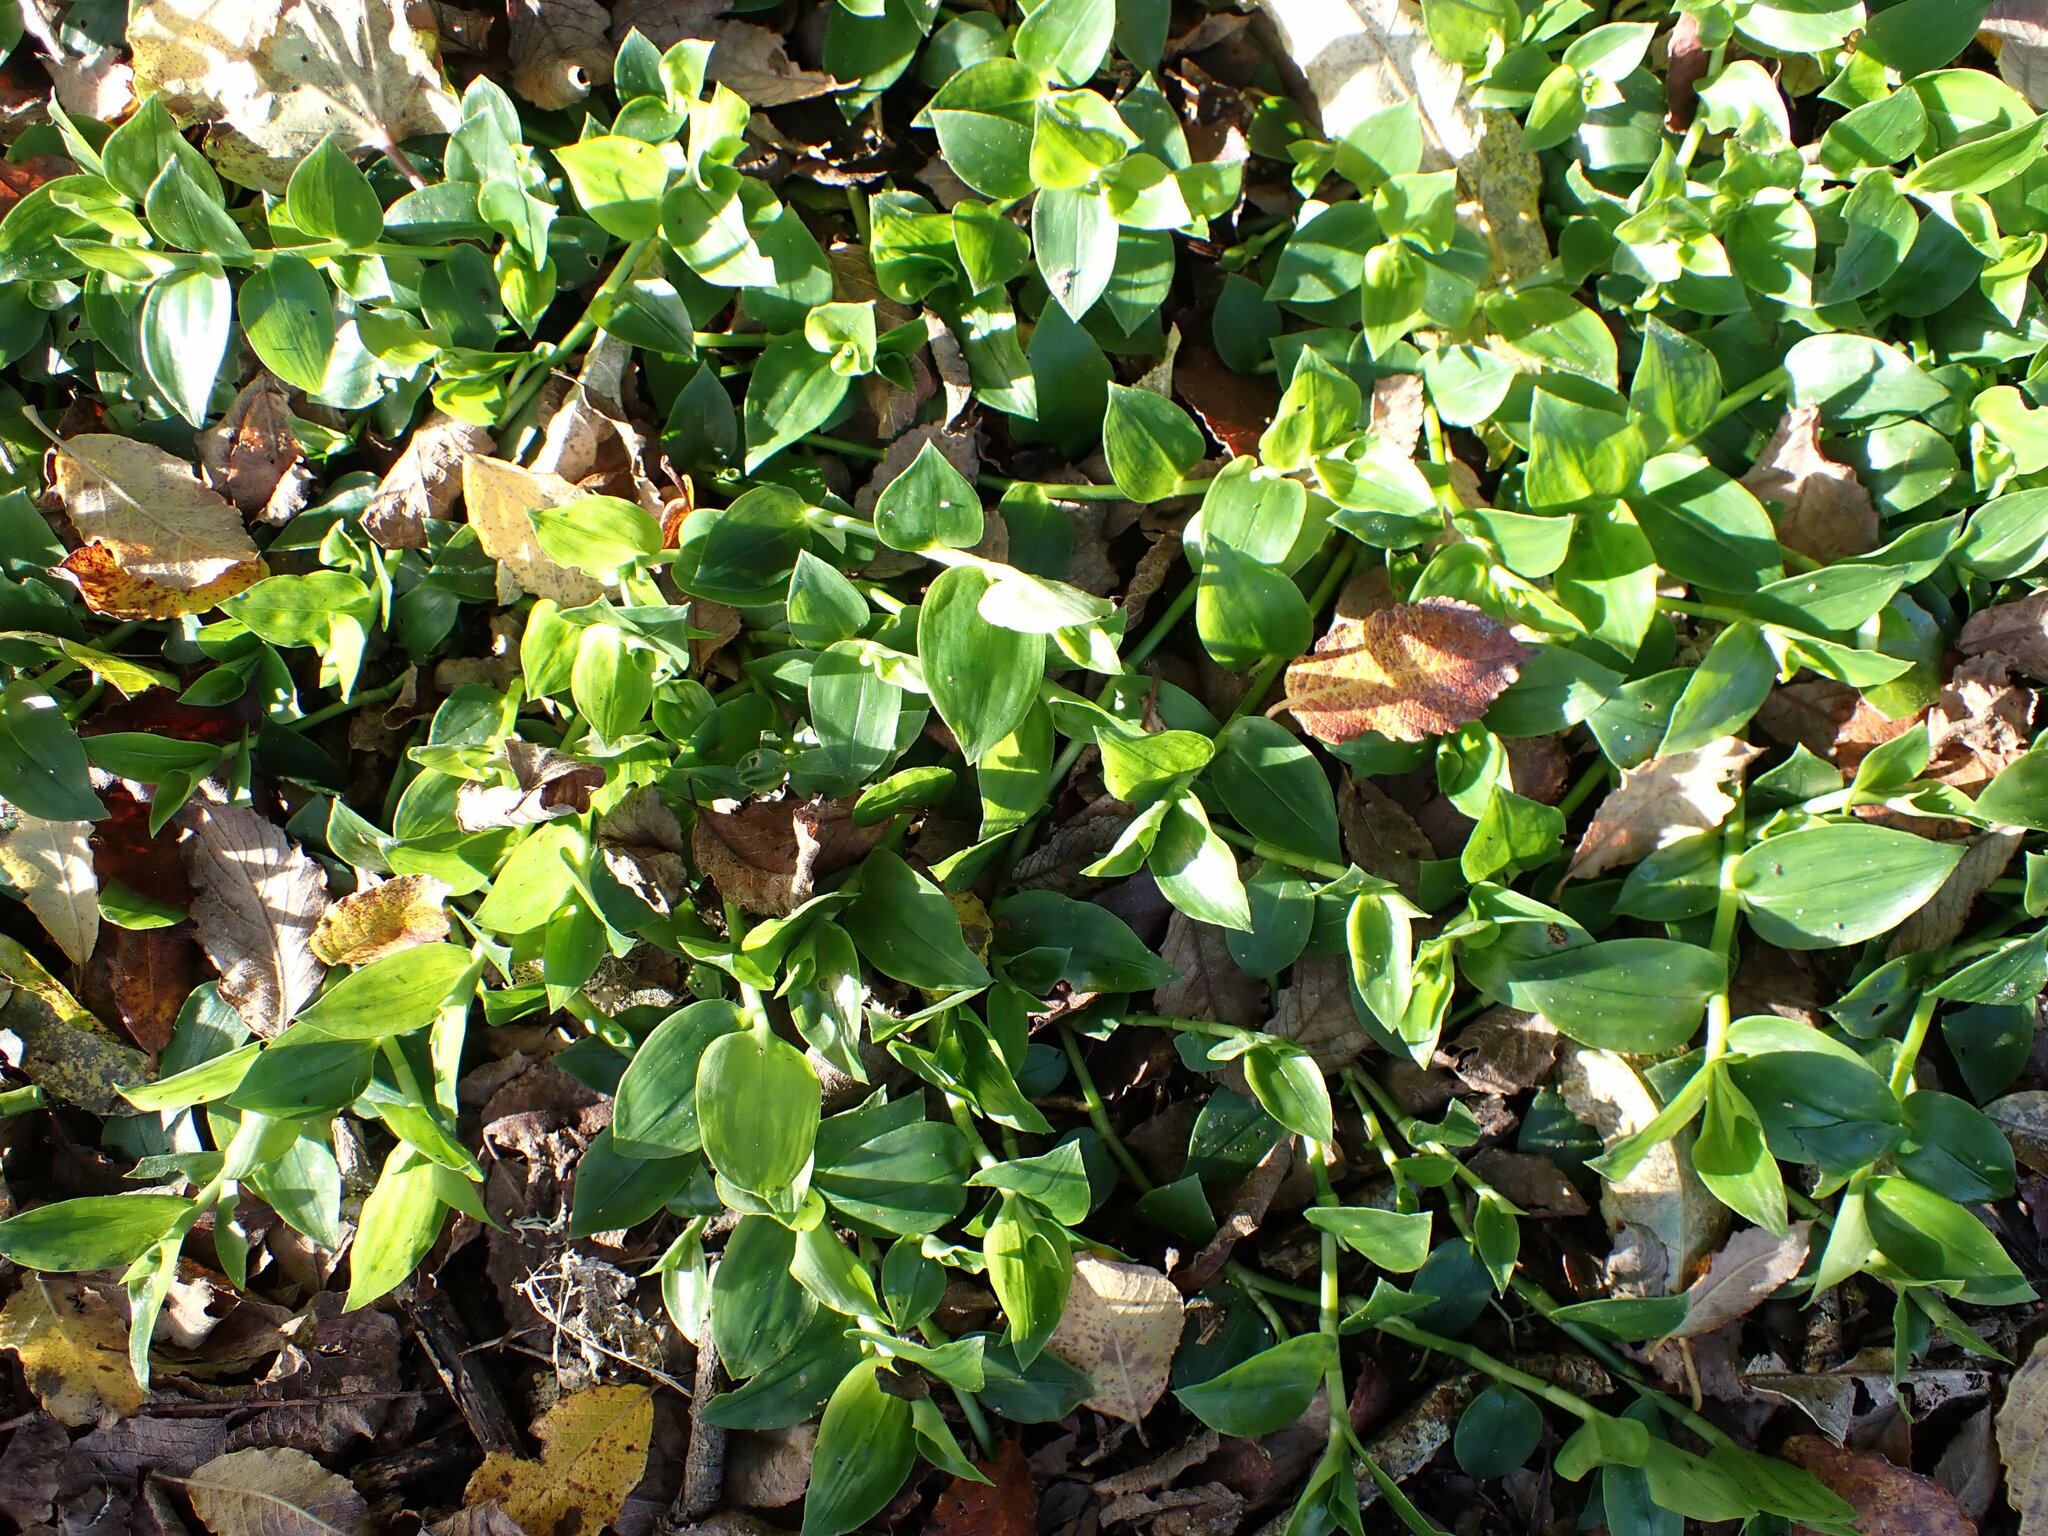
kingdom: Plantae
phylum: Tracheophyta
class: Liliopsida
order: Commelinales
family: Commelinaceae
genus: Tradescantia
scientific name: Tradescantia fluminensis
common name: Wandering-jew
